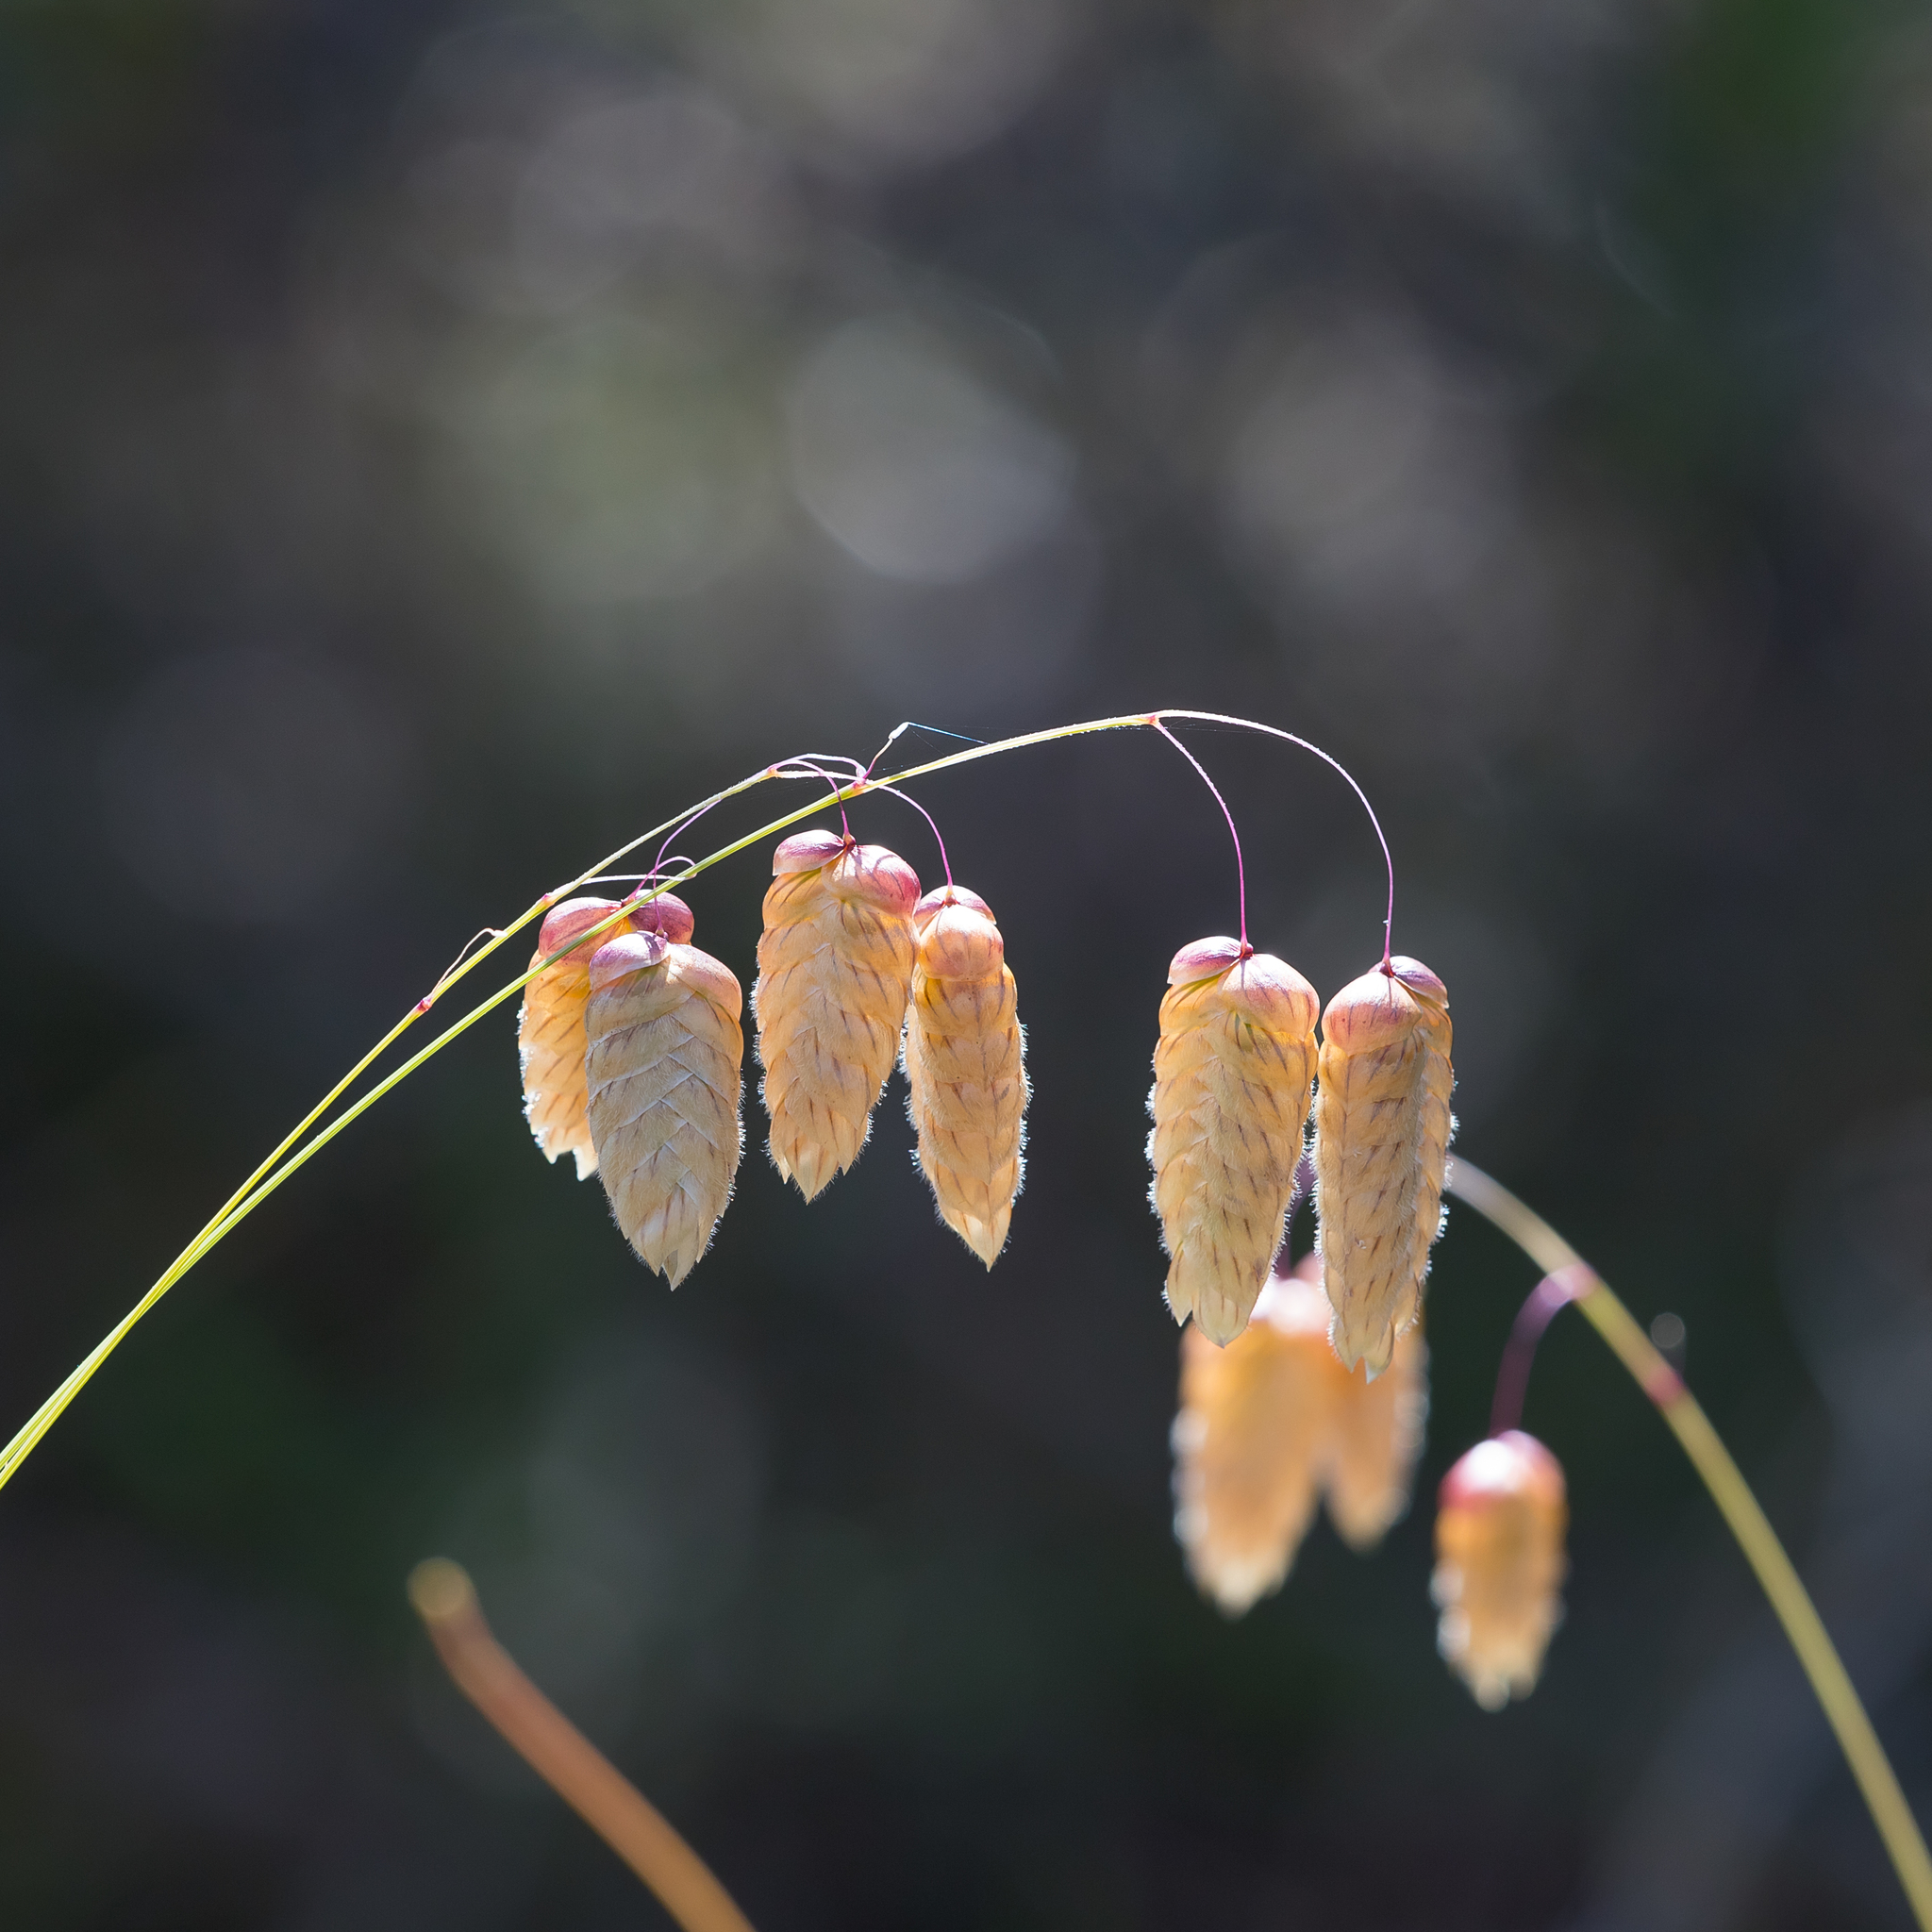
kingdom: Plantae
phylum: Tracheophyta
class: Liliopsida
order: Poales
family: Poaceae
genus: Briza
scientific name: Briza maxima
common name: Big quakinggrass
